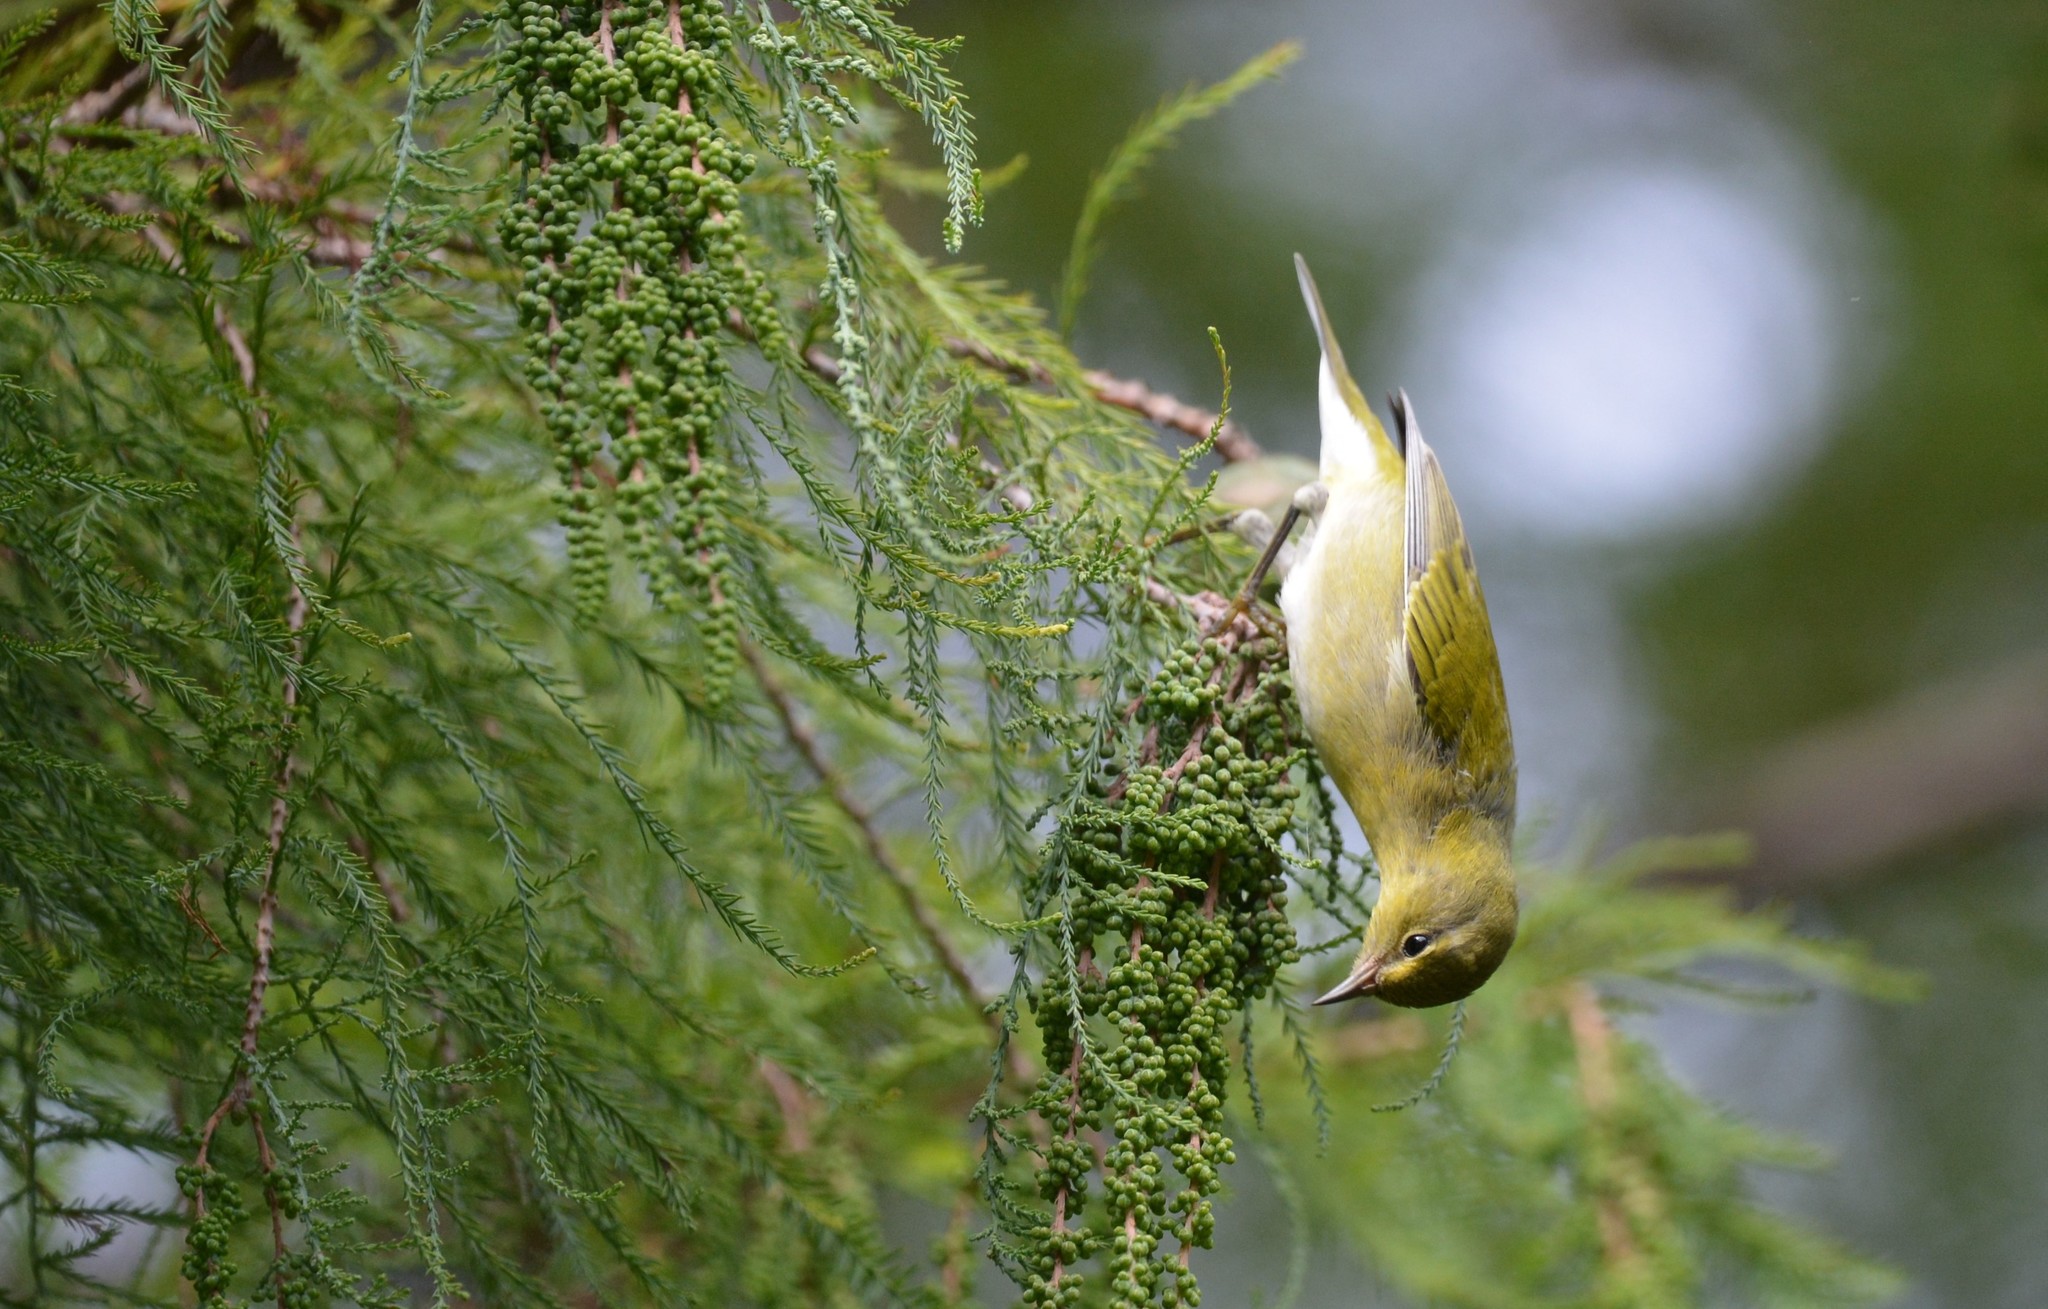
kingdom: Animalia
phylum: Chordata
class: Aves
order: Passeriformes
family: Parulidae
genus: Leiothlypis
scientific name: Leiothlypis peregrina
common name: Tennessee warbler
